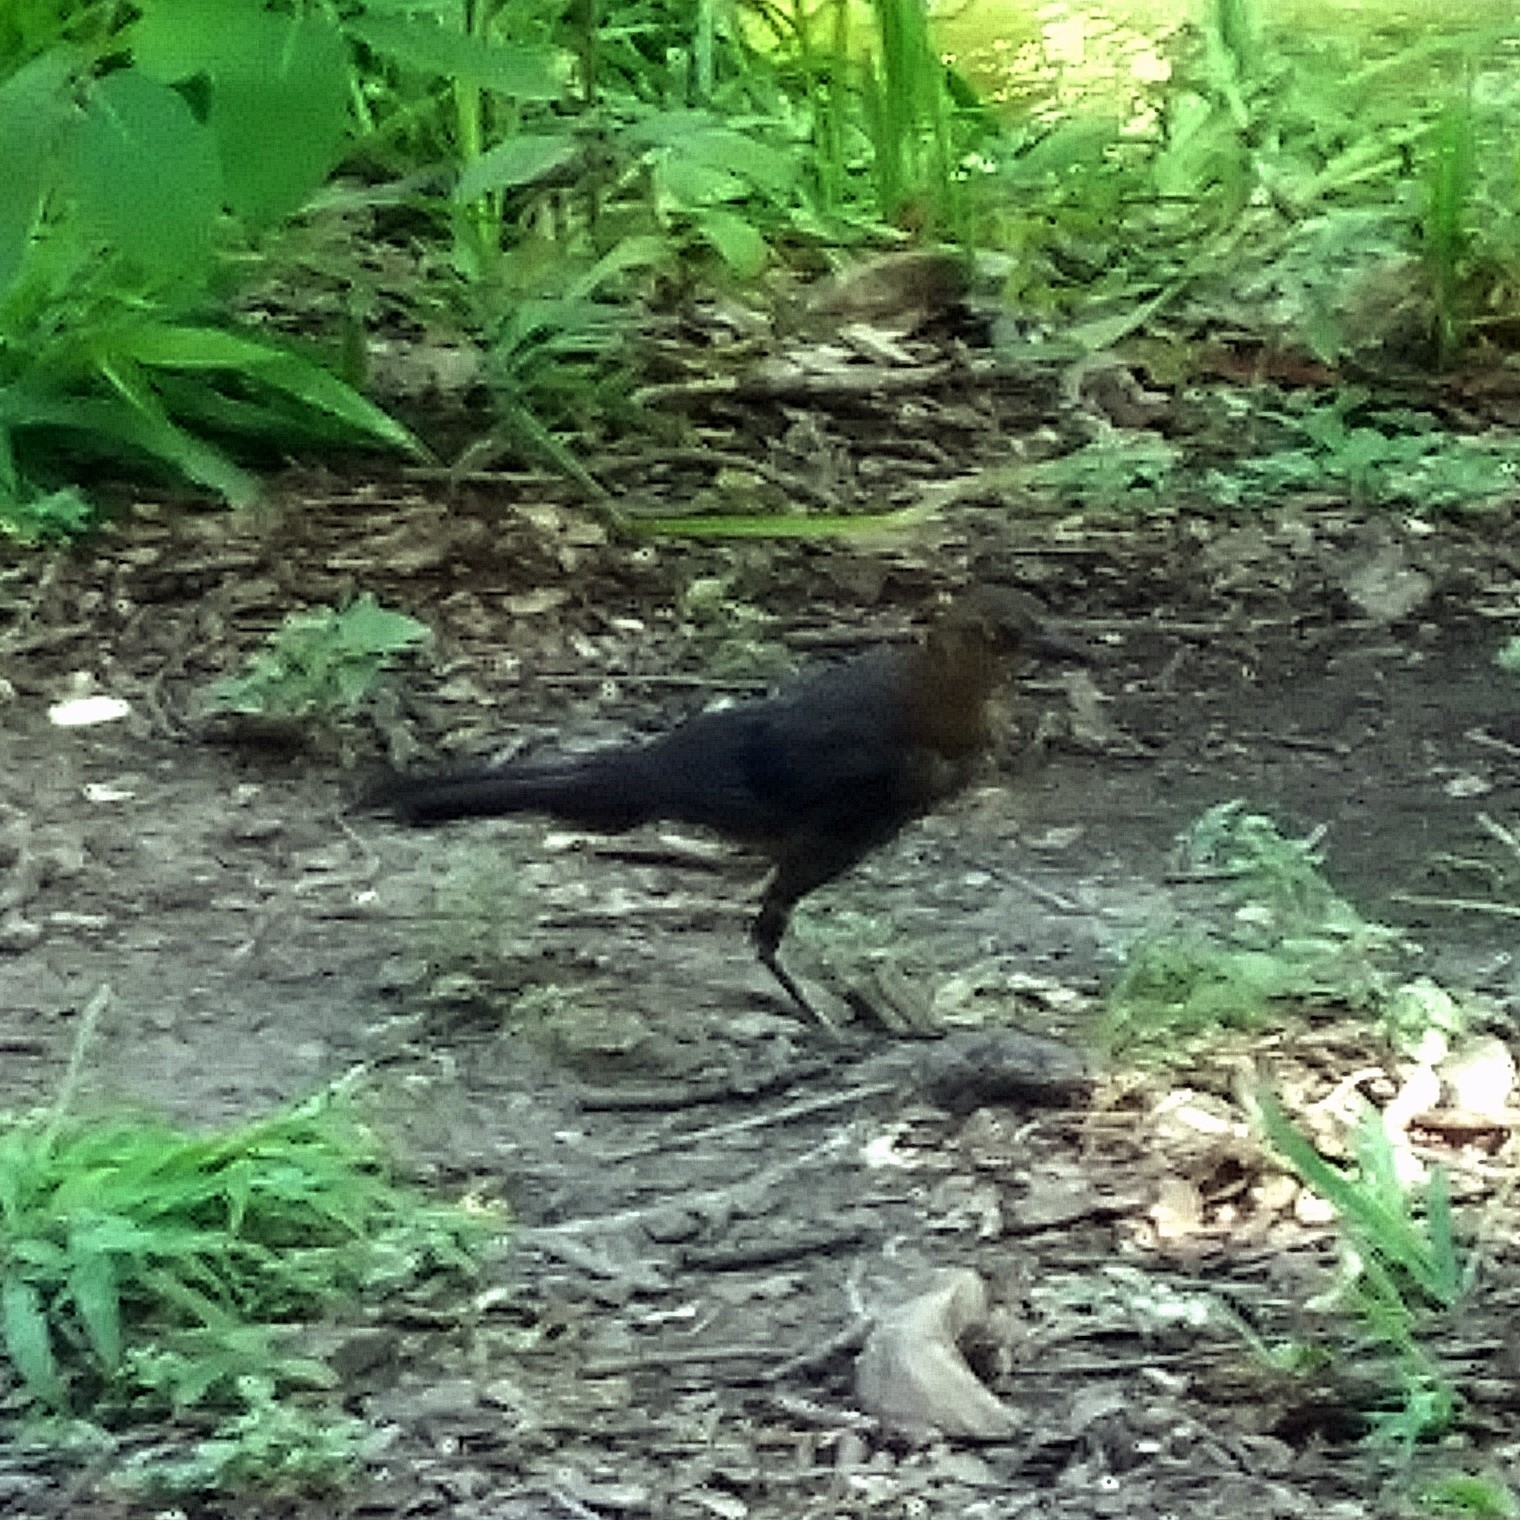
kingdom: Animalia
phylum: Chordata
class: Aves
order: Passeriformes
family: Icteridae
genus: Quiscalus
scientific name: Quiscalus mexicanus
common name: Great-tailed grackle
